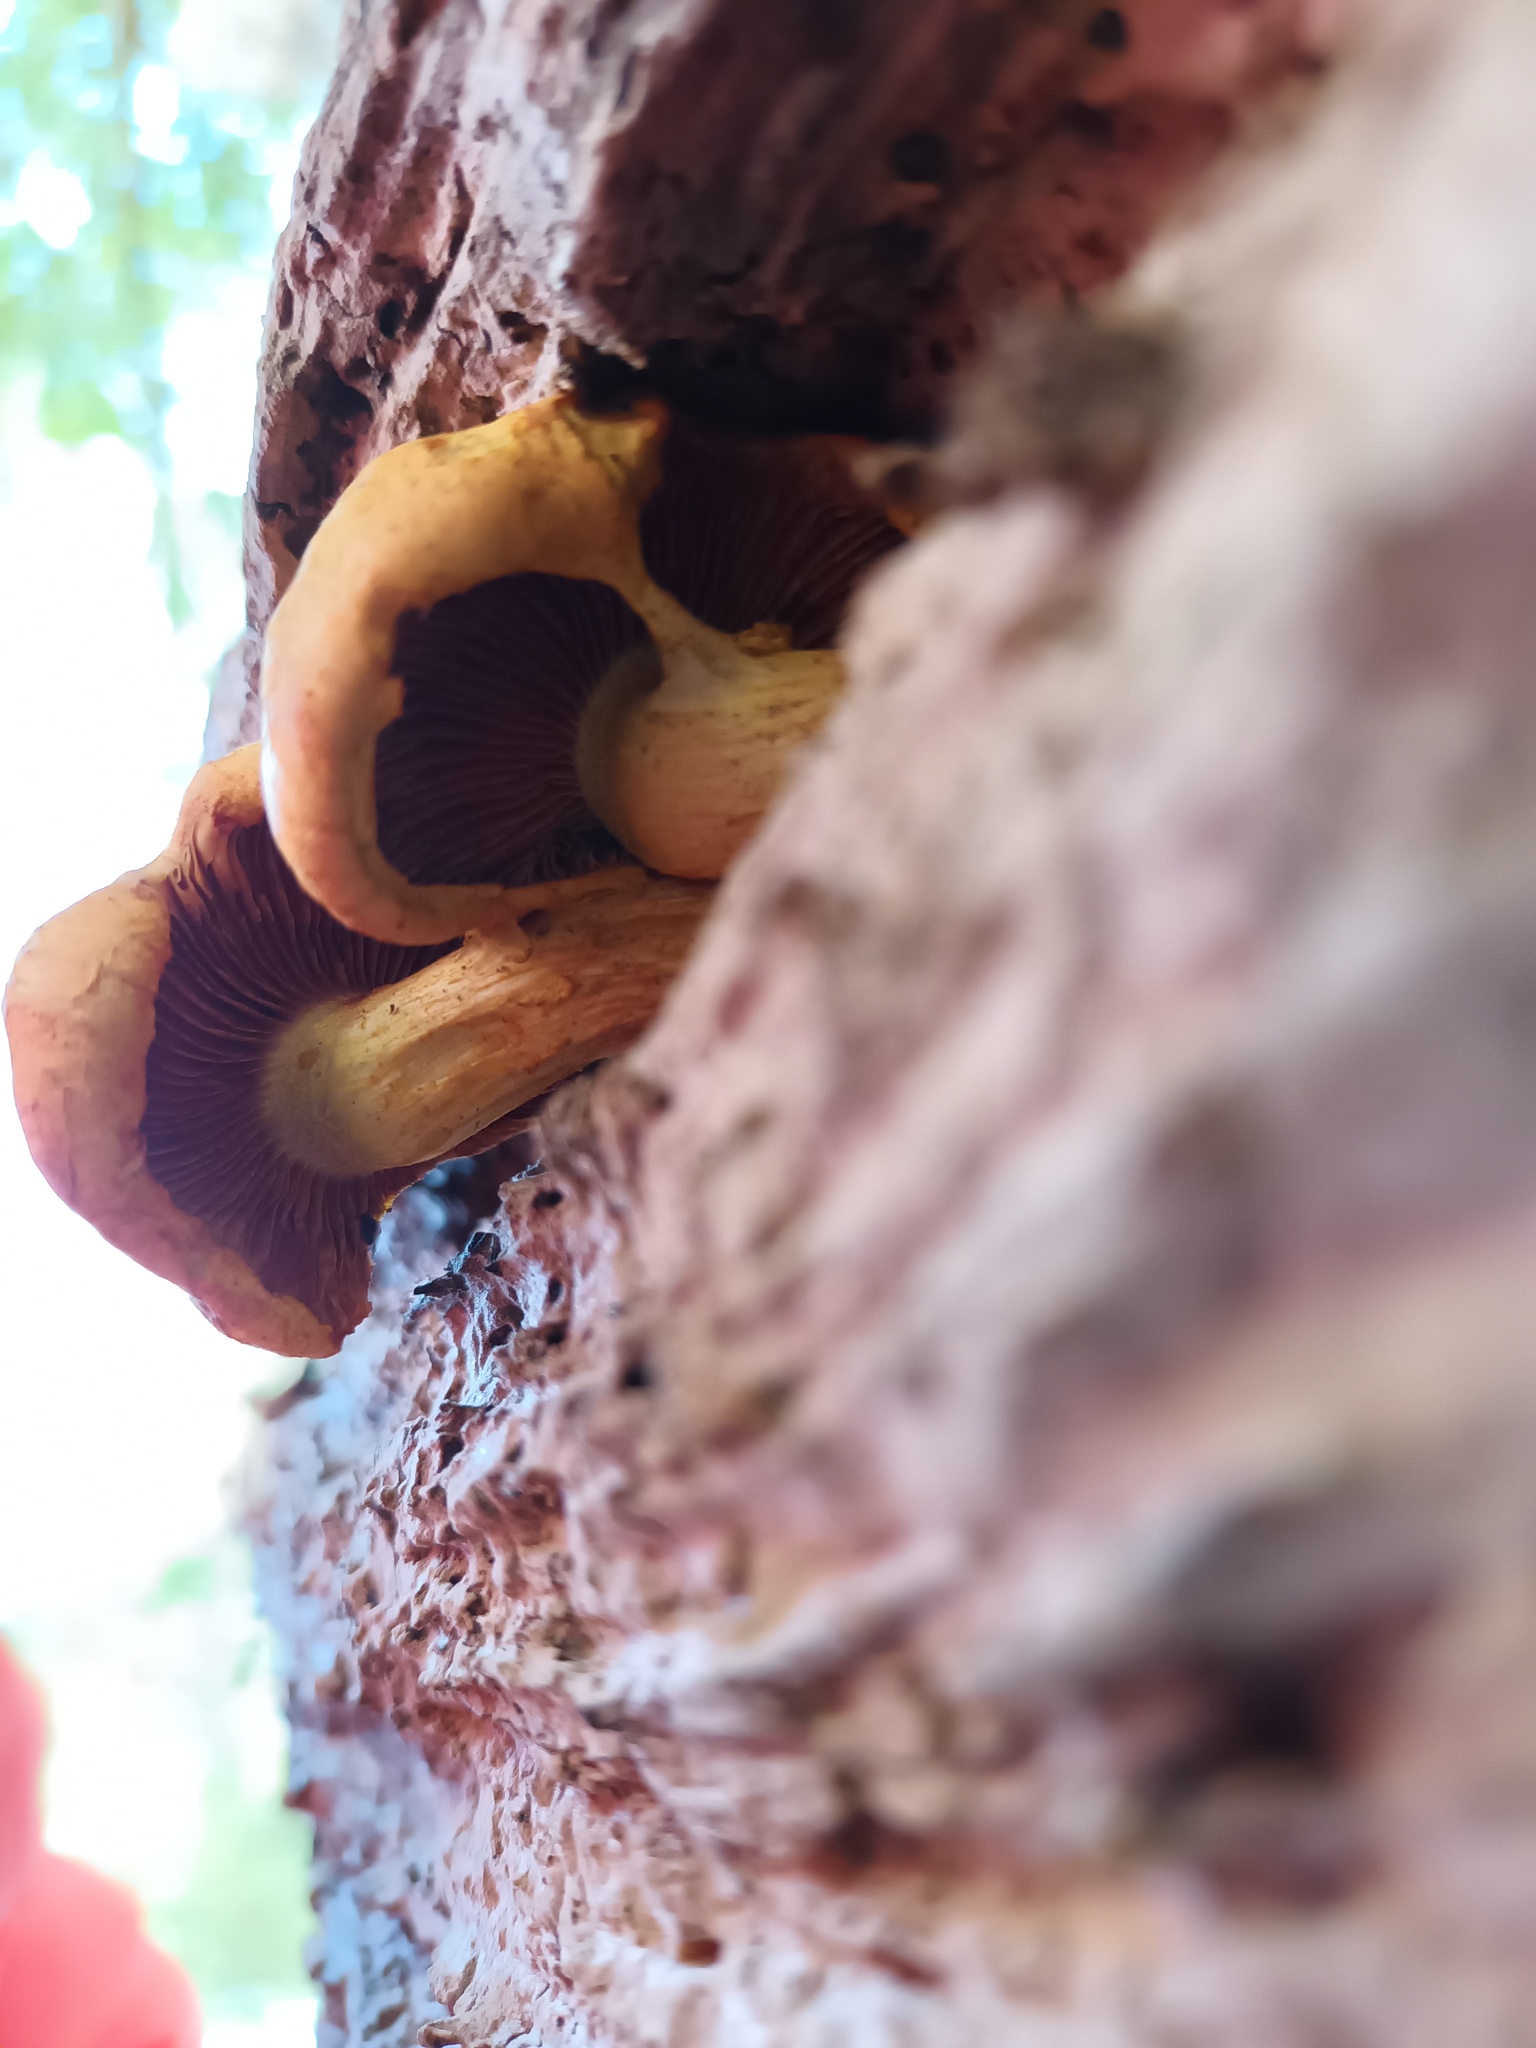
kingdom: Fungi
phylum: Basidiomycota
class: Agaricomycetes
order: Agaricales
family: Hymenogastraceae
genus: Gymnopilus
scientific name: Gymnopilus junonius
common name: Spectacular rustgill
